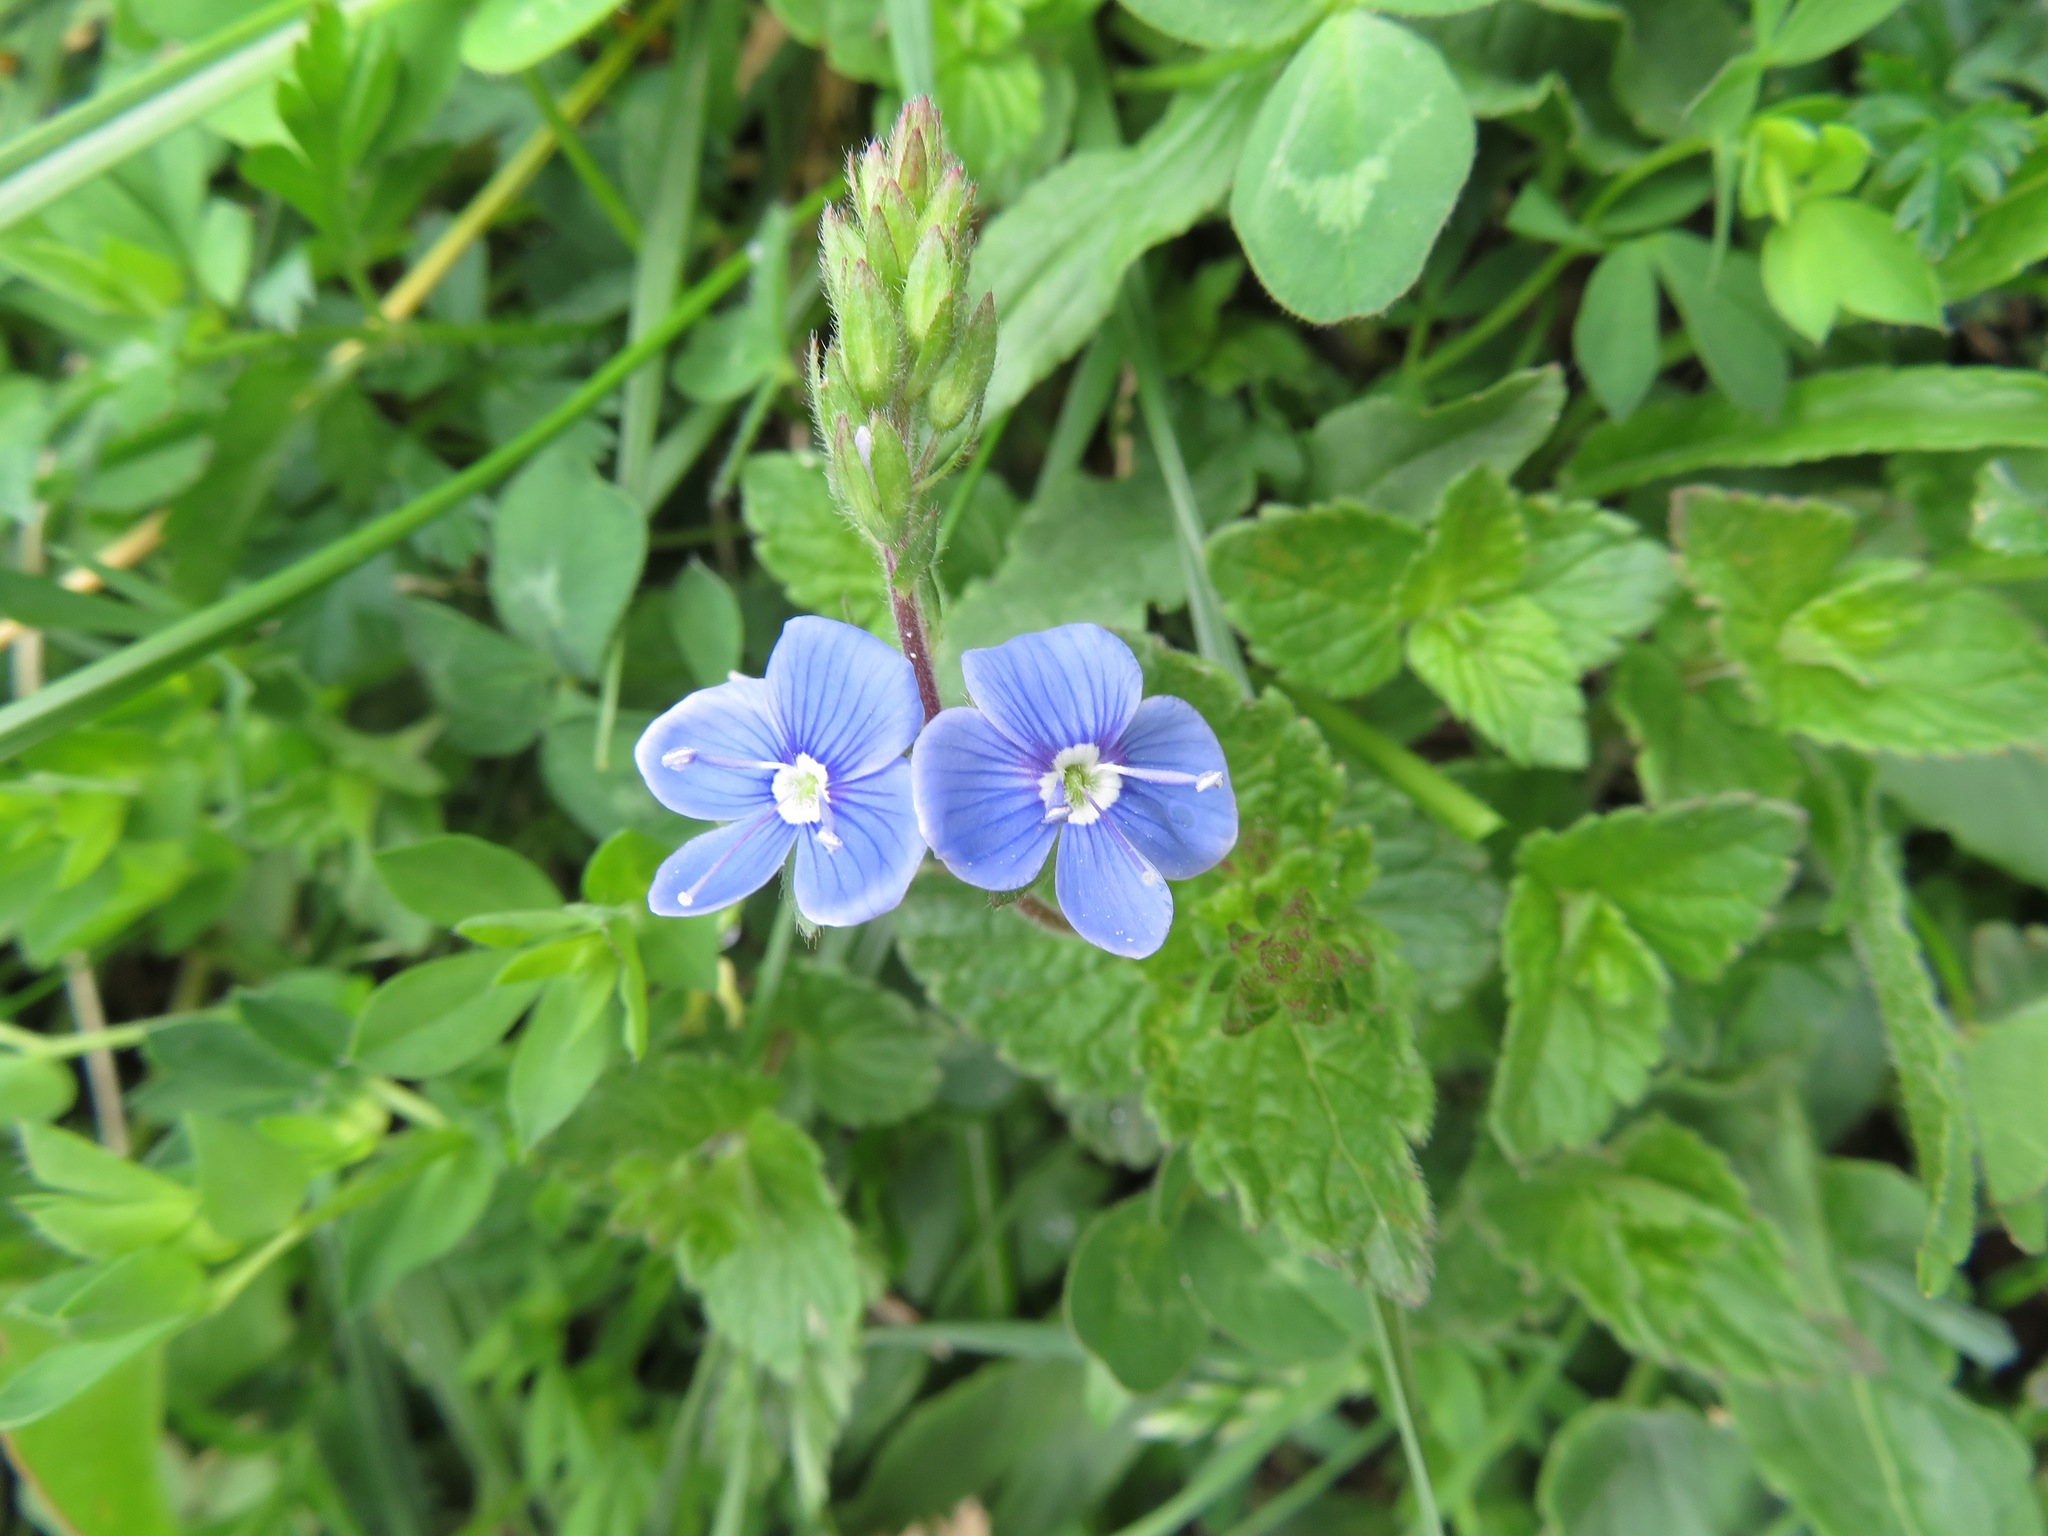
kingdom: Plantae
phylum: Tracheophyta
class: Magnoliopsida
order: Lamiales
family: Plantaginaceae
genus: Veronica
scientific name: Veronica chamaedrys
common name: Germander speedwell
